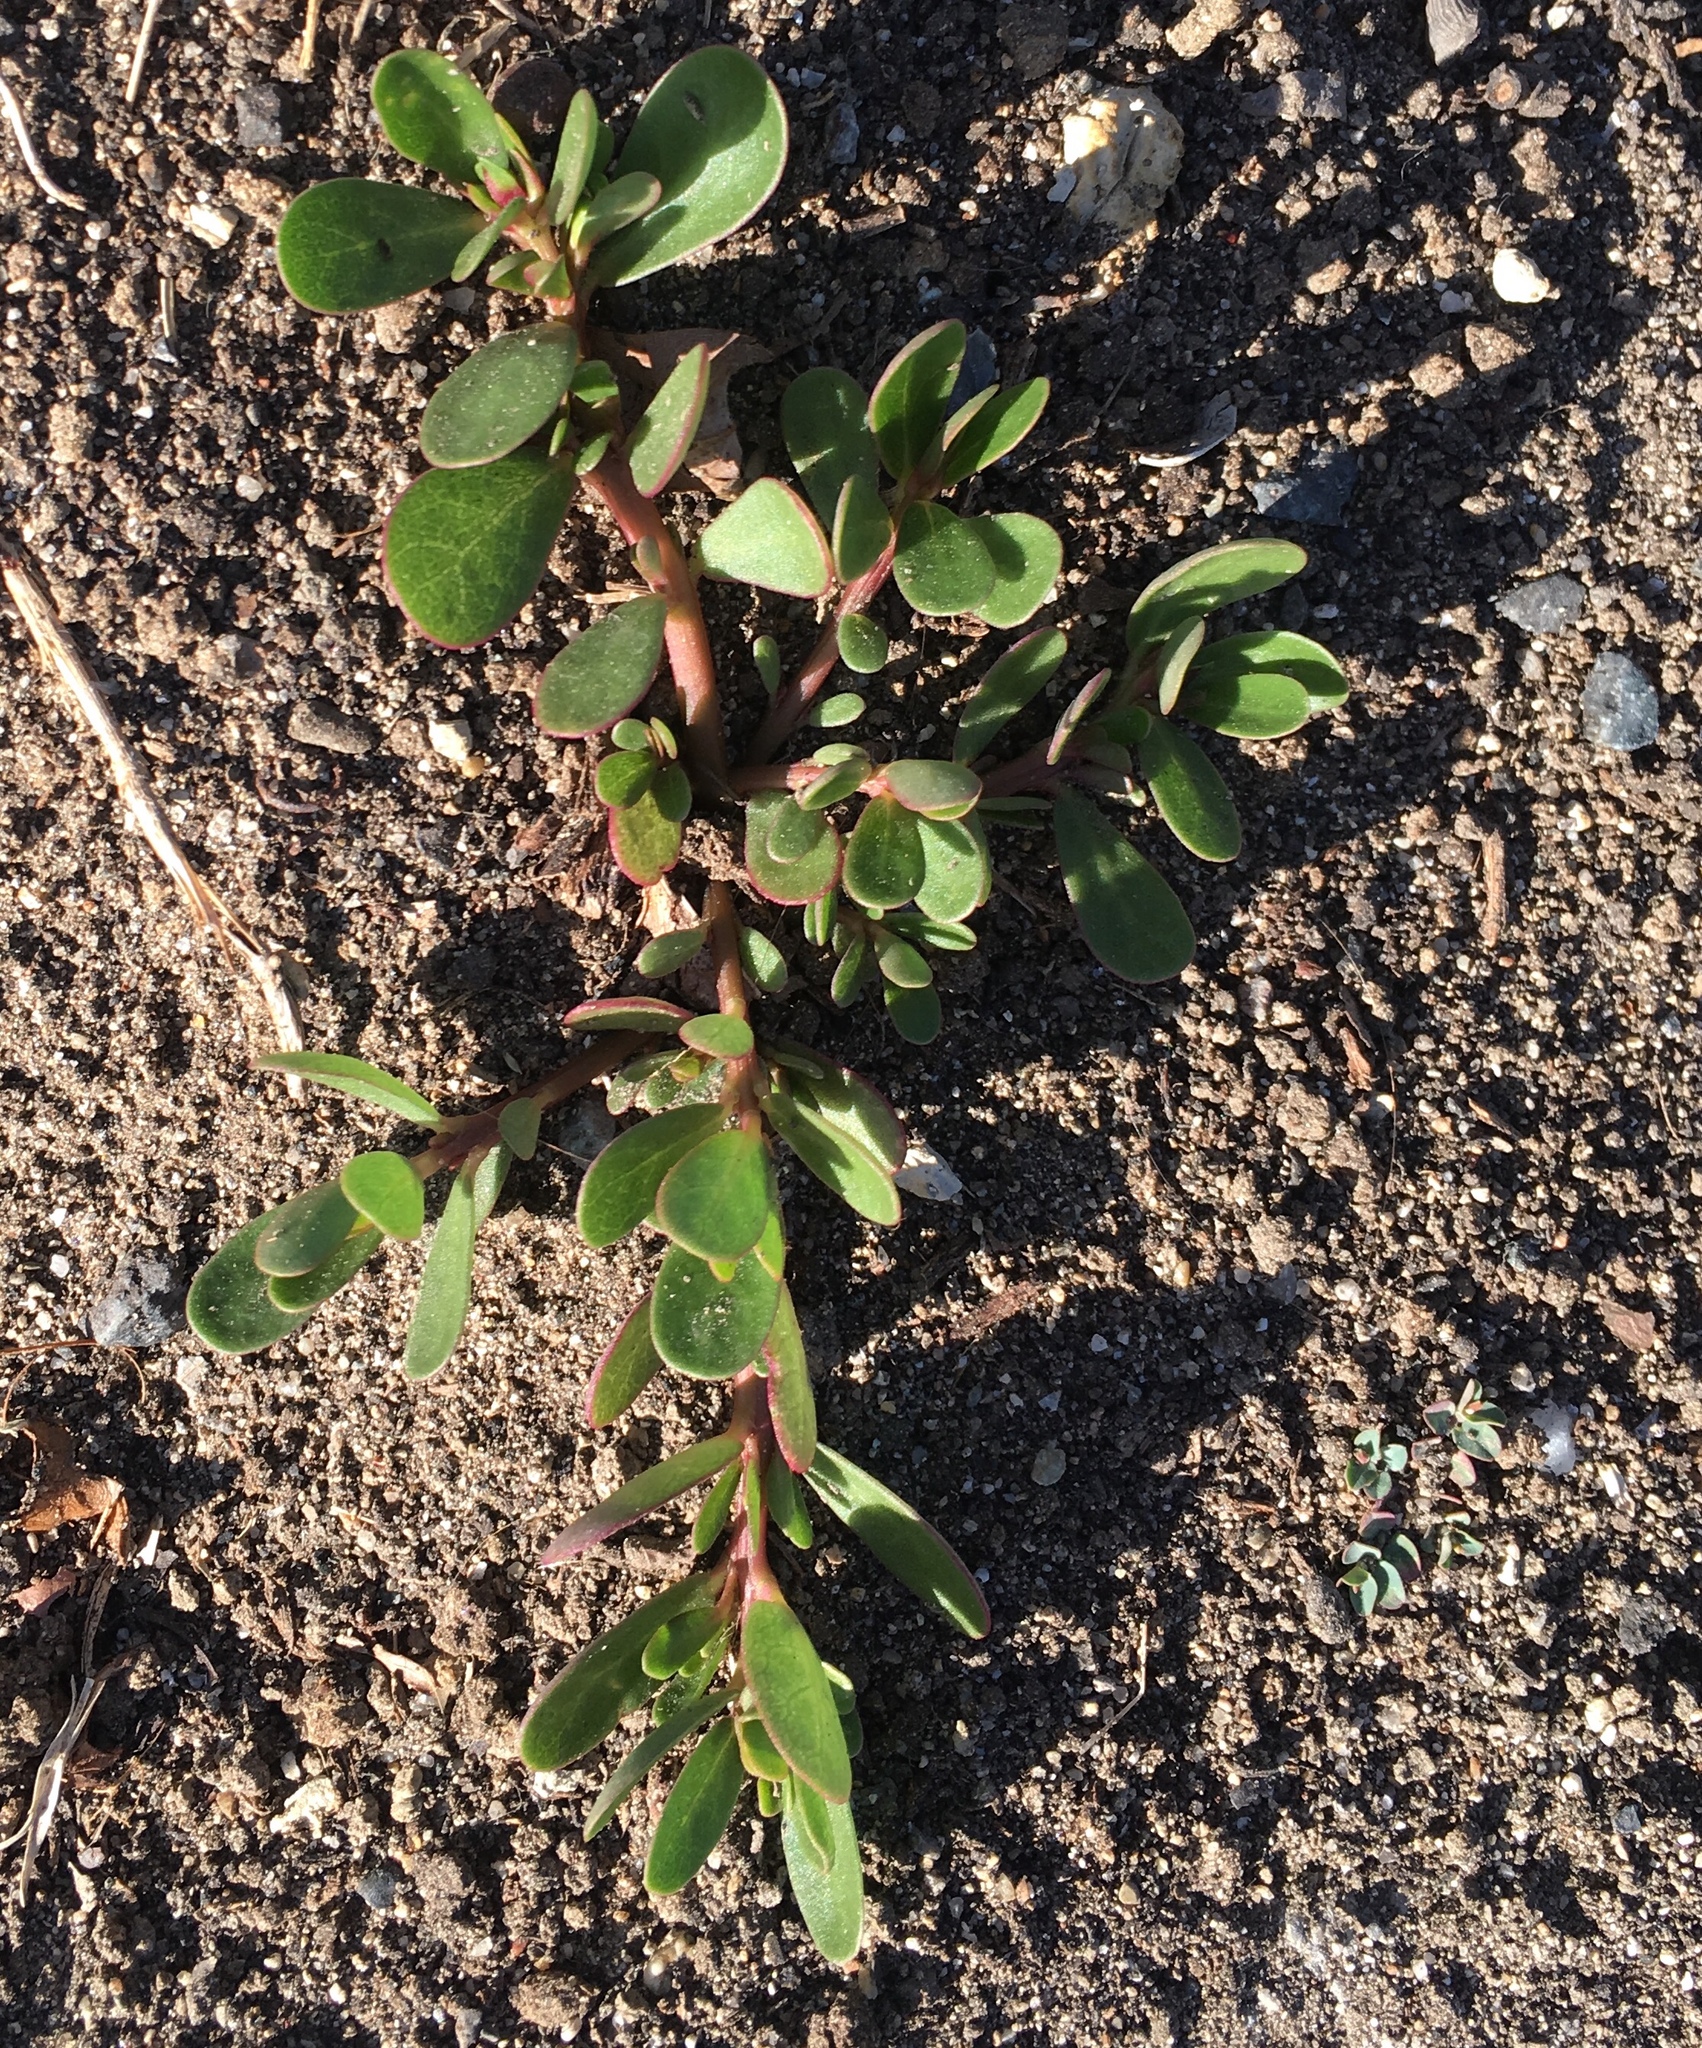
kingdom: Plantae
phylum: Tracheophyta
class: Magnoliopsida
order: Caryophyllales
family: Portulacaceae
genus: Portulaca
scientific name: Portulaca oleracea
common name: Common purslane
